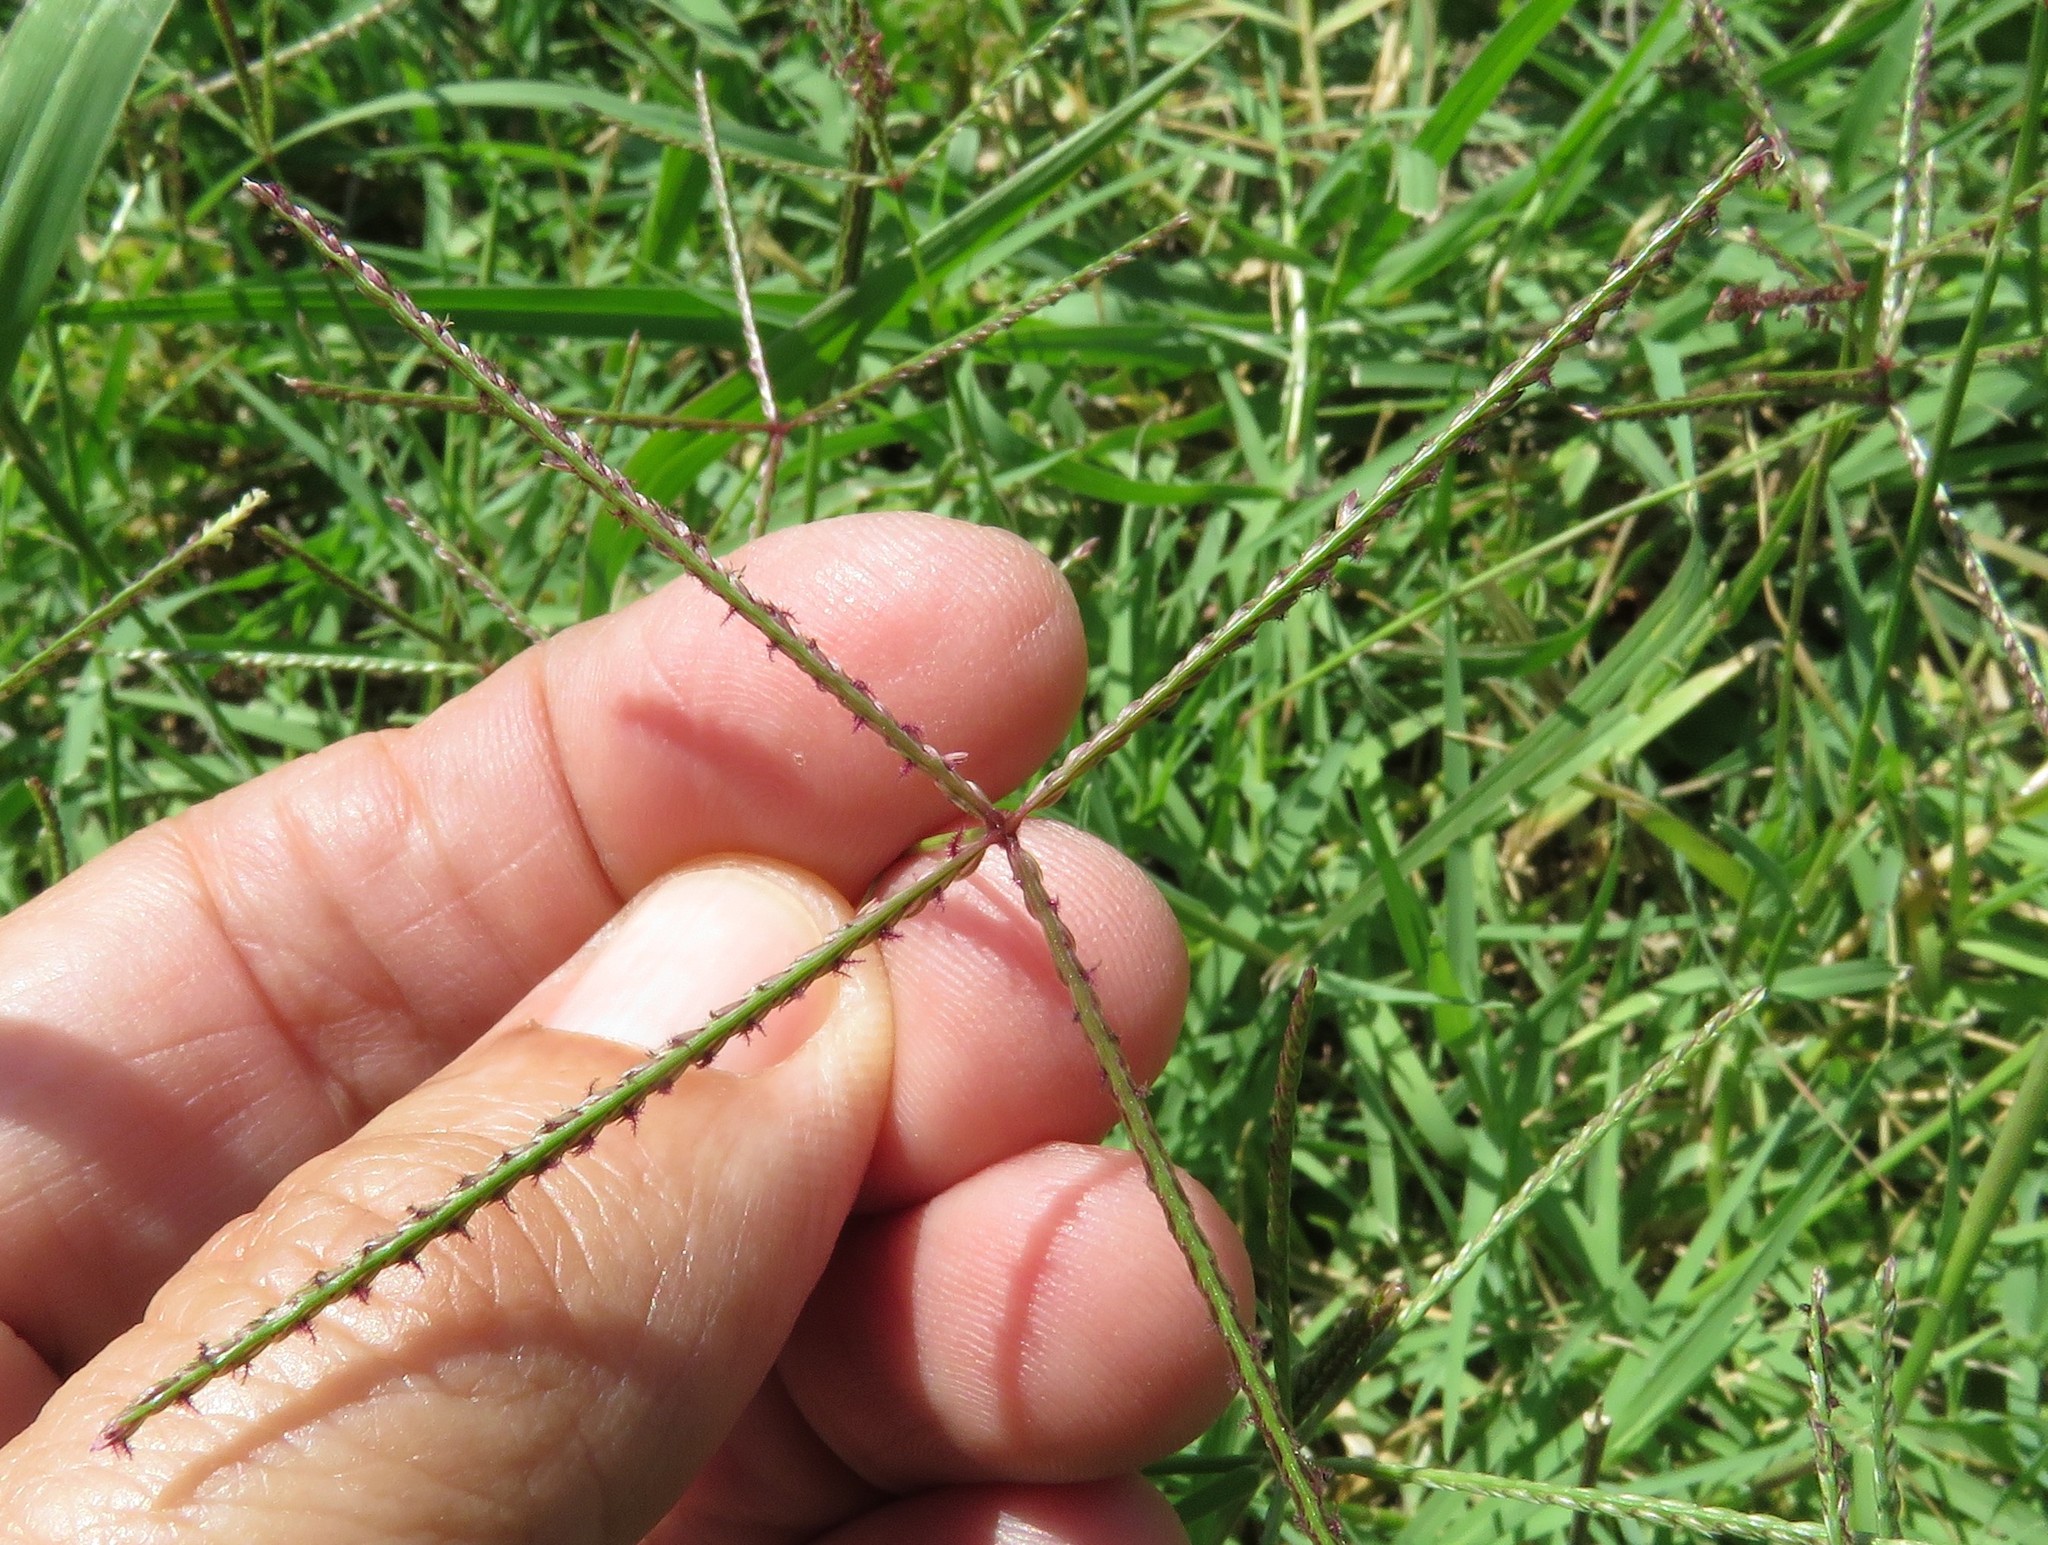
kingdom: Plantae
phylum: Tracheophyta
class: Liliopsida
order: Poales
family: Poaceae
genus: Cynodon
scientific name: Cynodon dactylon
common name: Bermuda grass
